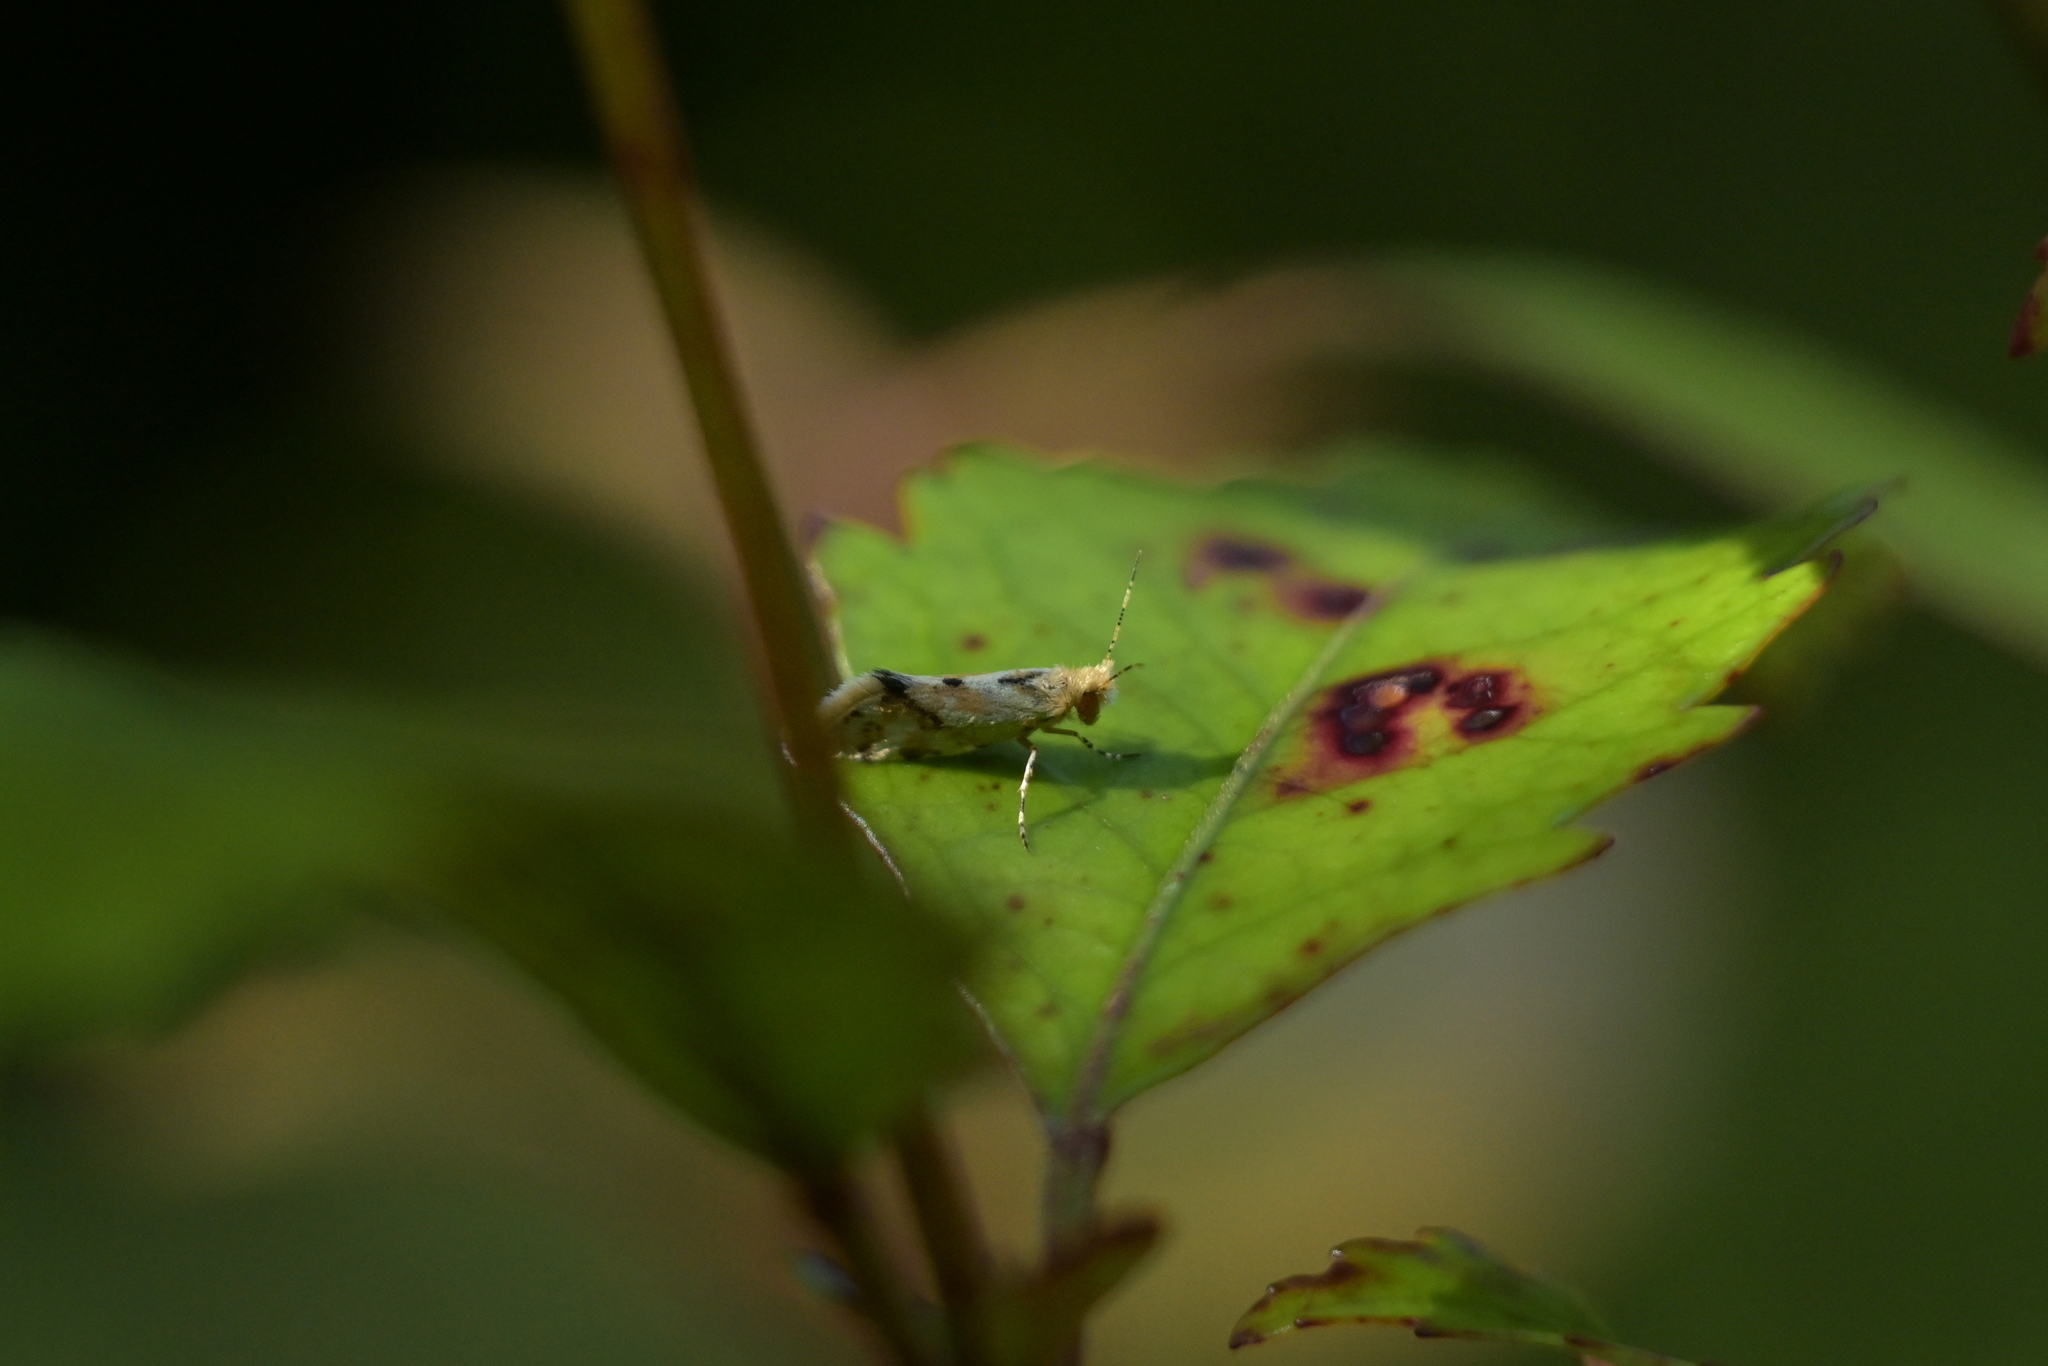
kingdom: Animalia
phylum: Arthropoda
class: Insecta
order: Lepidoptera
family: Micropterigidae
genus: Sabatinca
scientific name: Sabatinca chalcophanes
